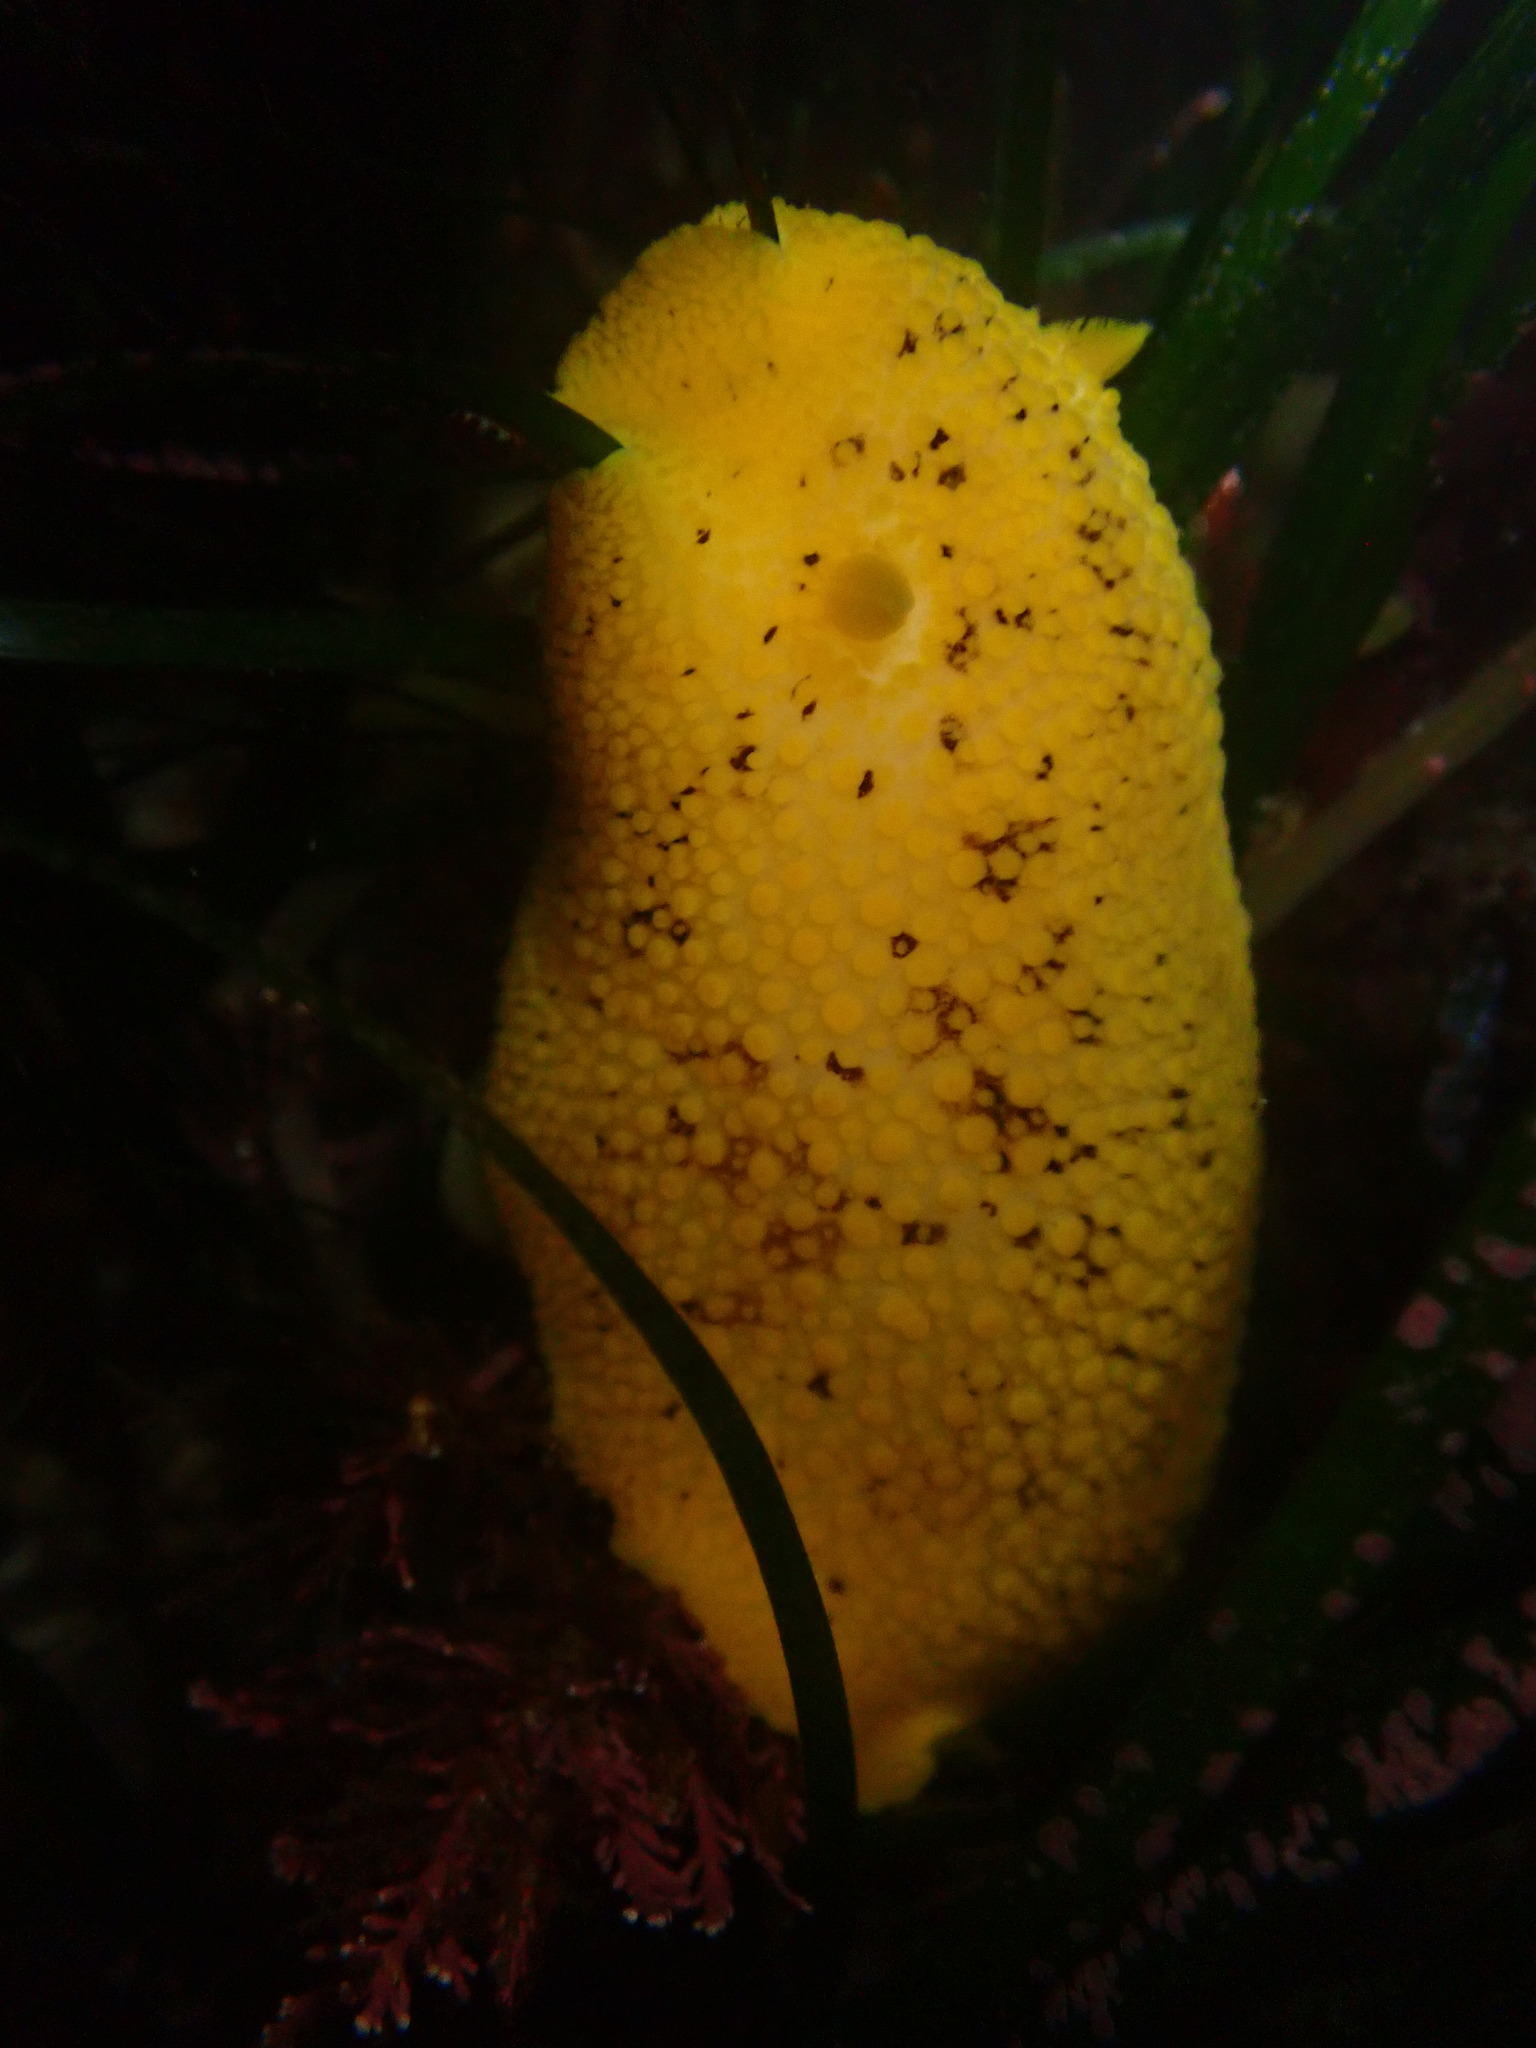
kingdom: Animalia
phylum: Mollusca
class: Gastropoda
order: Nudibranchia
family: Discodorididae
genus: Peltodoris
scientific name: Peltodoris nobilis
